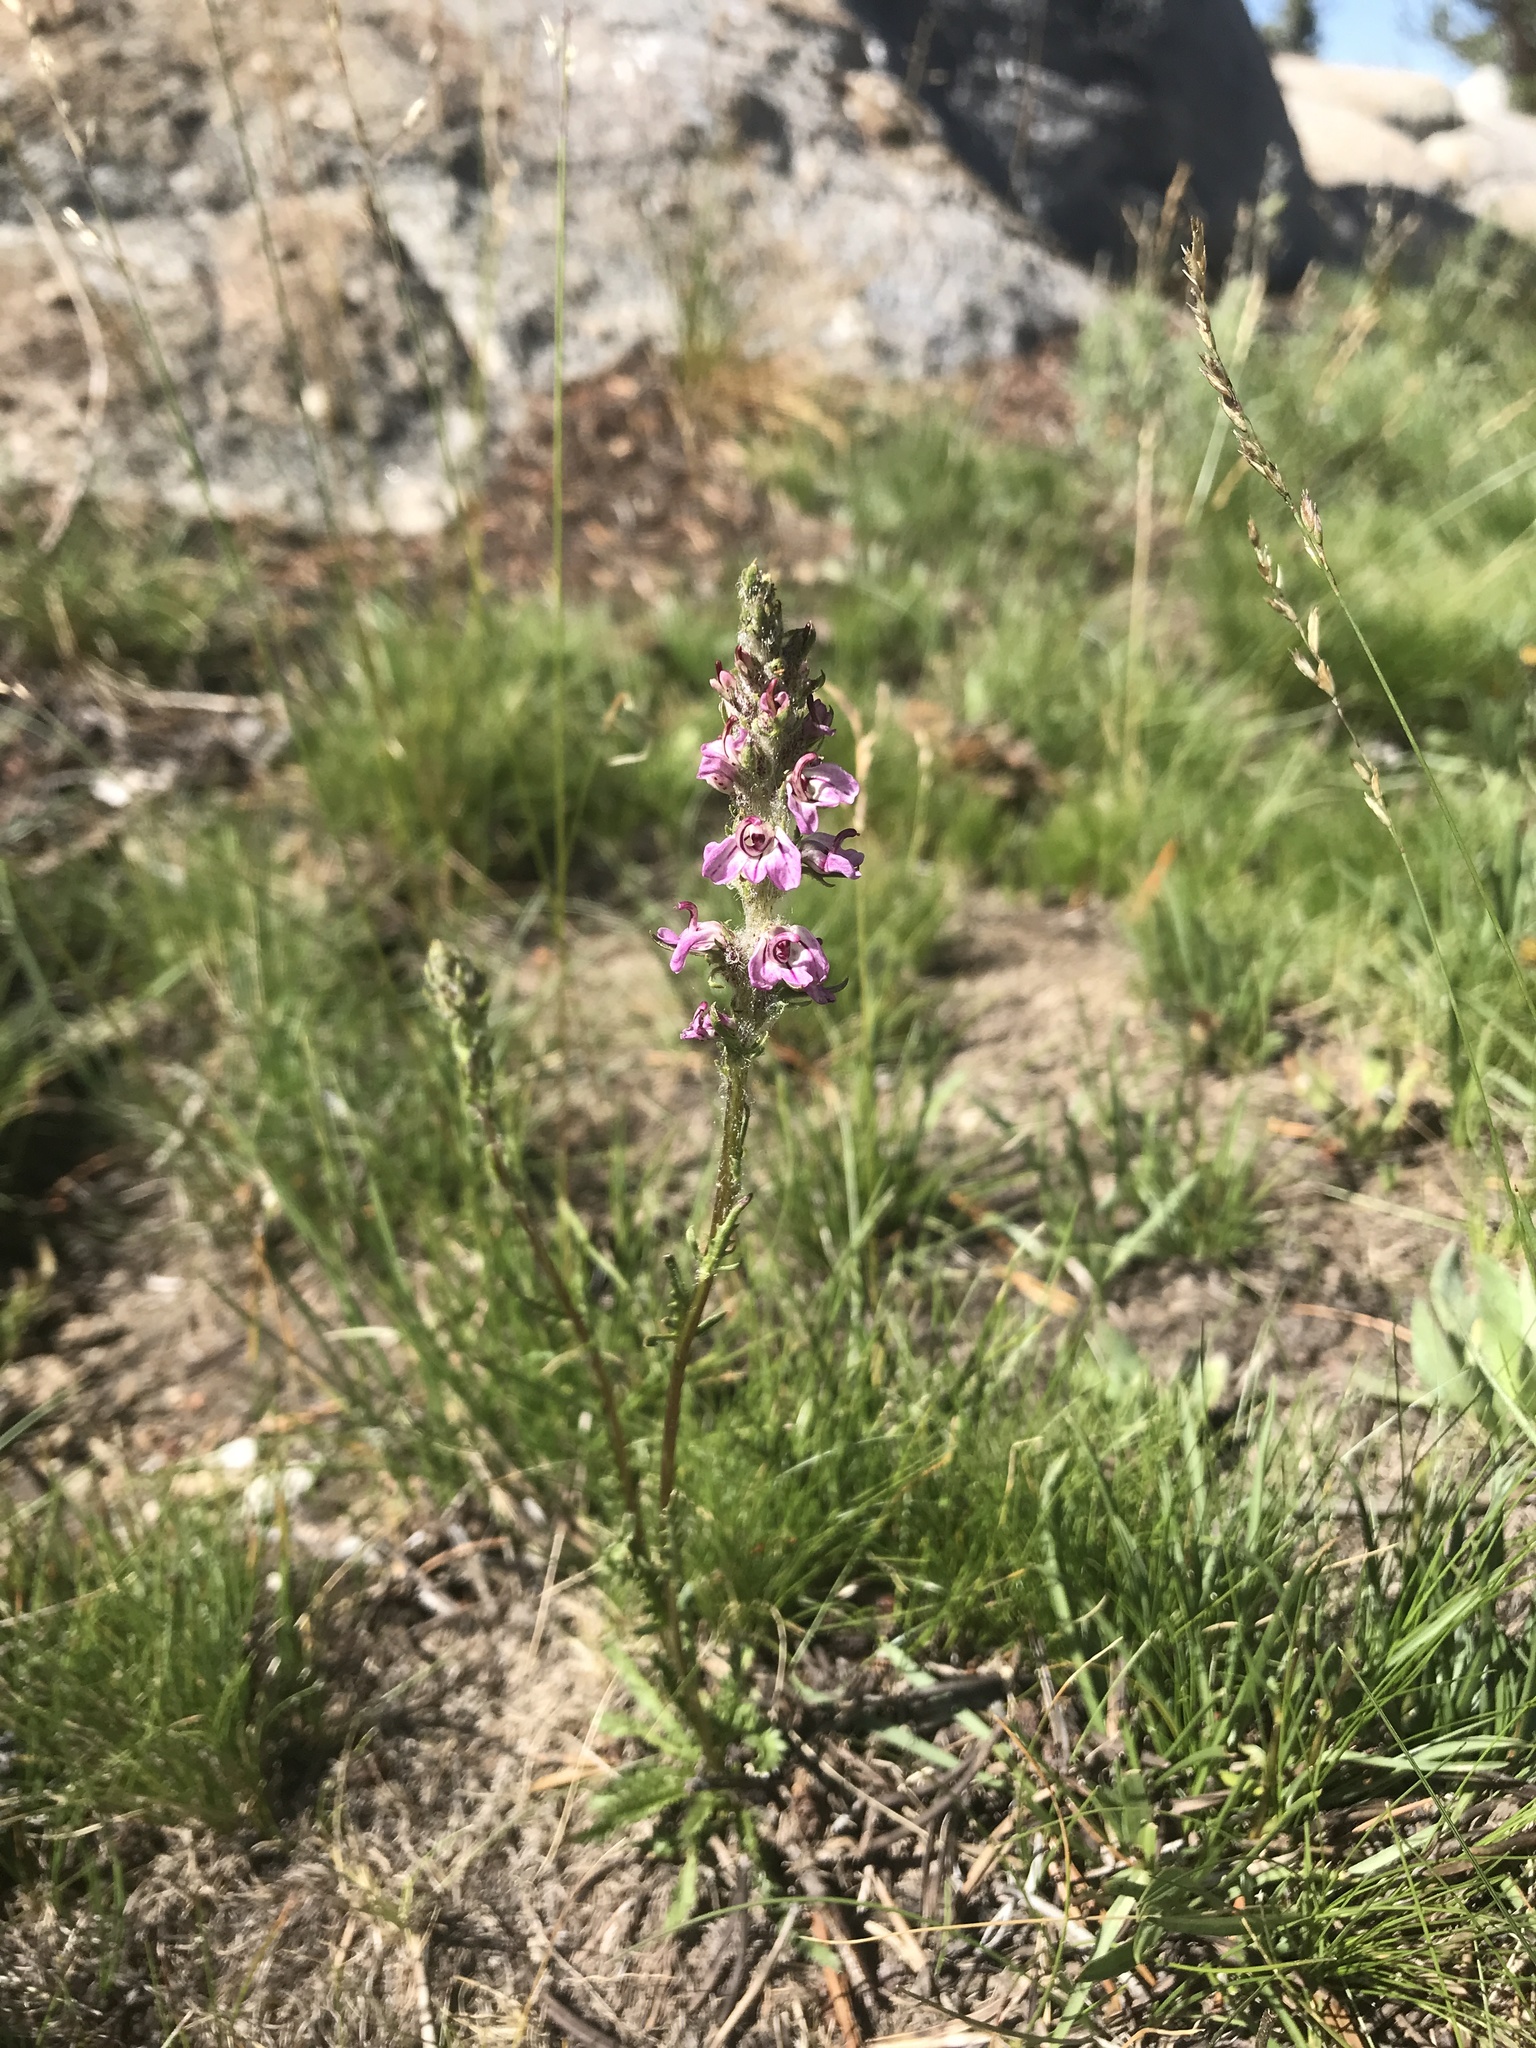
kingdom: Plantae
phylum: Tracheophyta
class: Magnoliopsida
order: Lamiales
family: Orobanchaceae
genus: Pedicularis
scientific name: Pedicularis attollens
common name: Slender pedicularis
